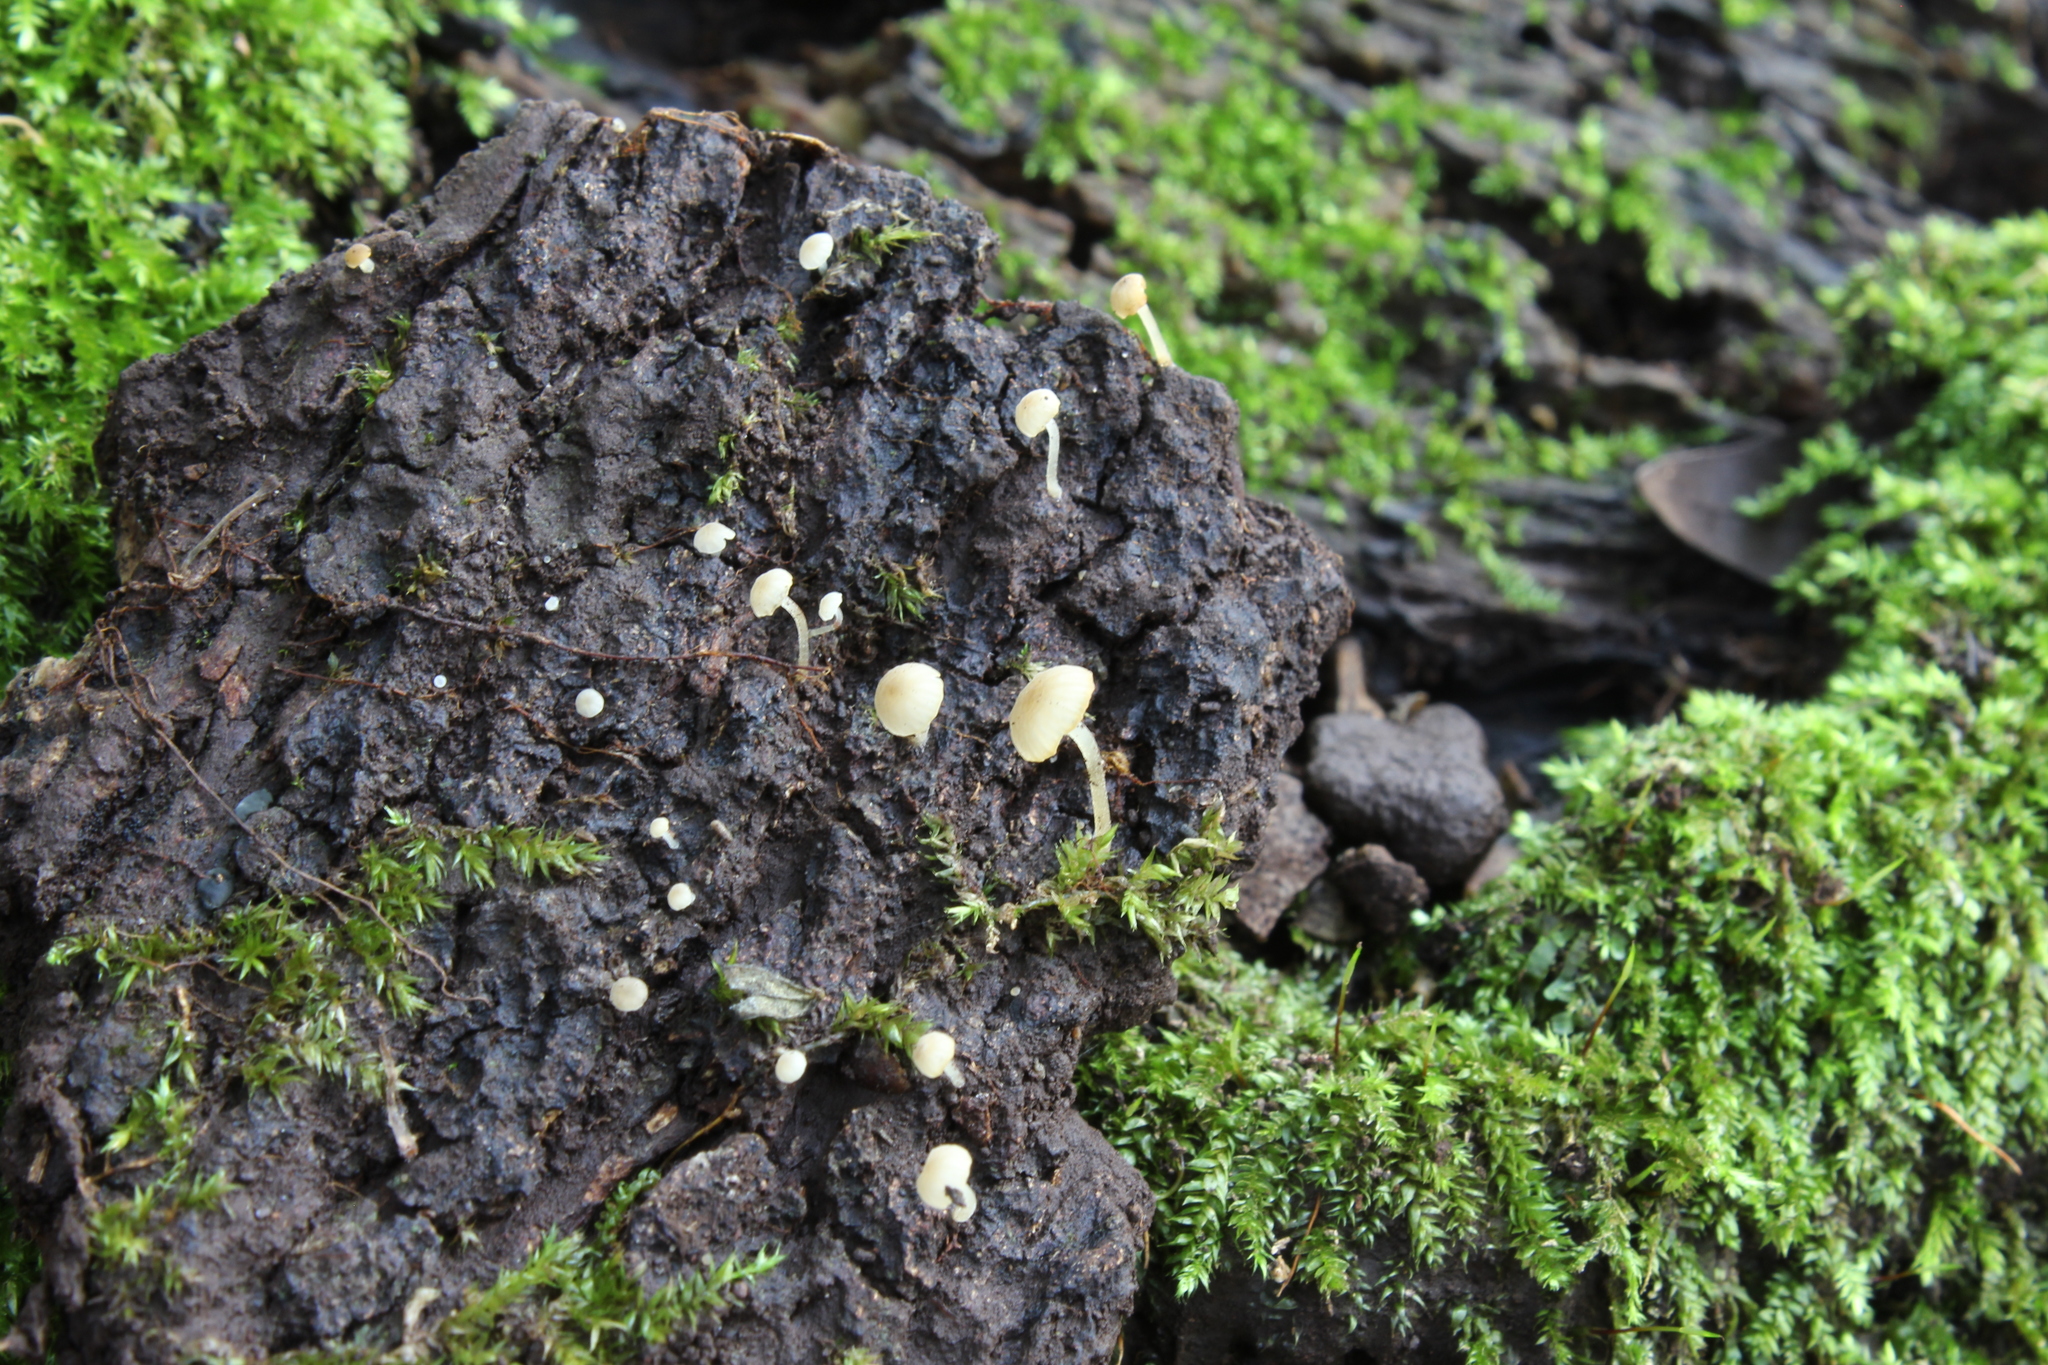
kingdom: Fungi
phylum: Basidiomycota
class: Agaricomycetes
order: Agaricales
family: Porotheleaceae
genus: Phloeomana
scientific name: Phloeomana speirea
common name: Bark bonnet
